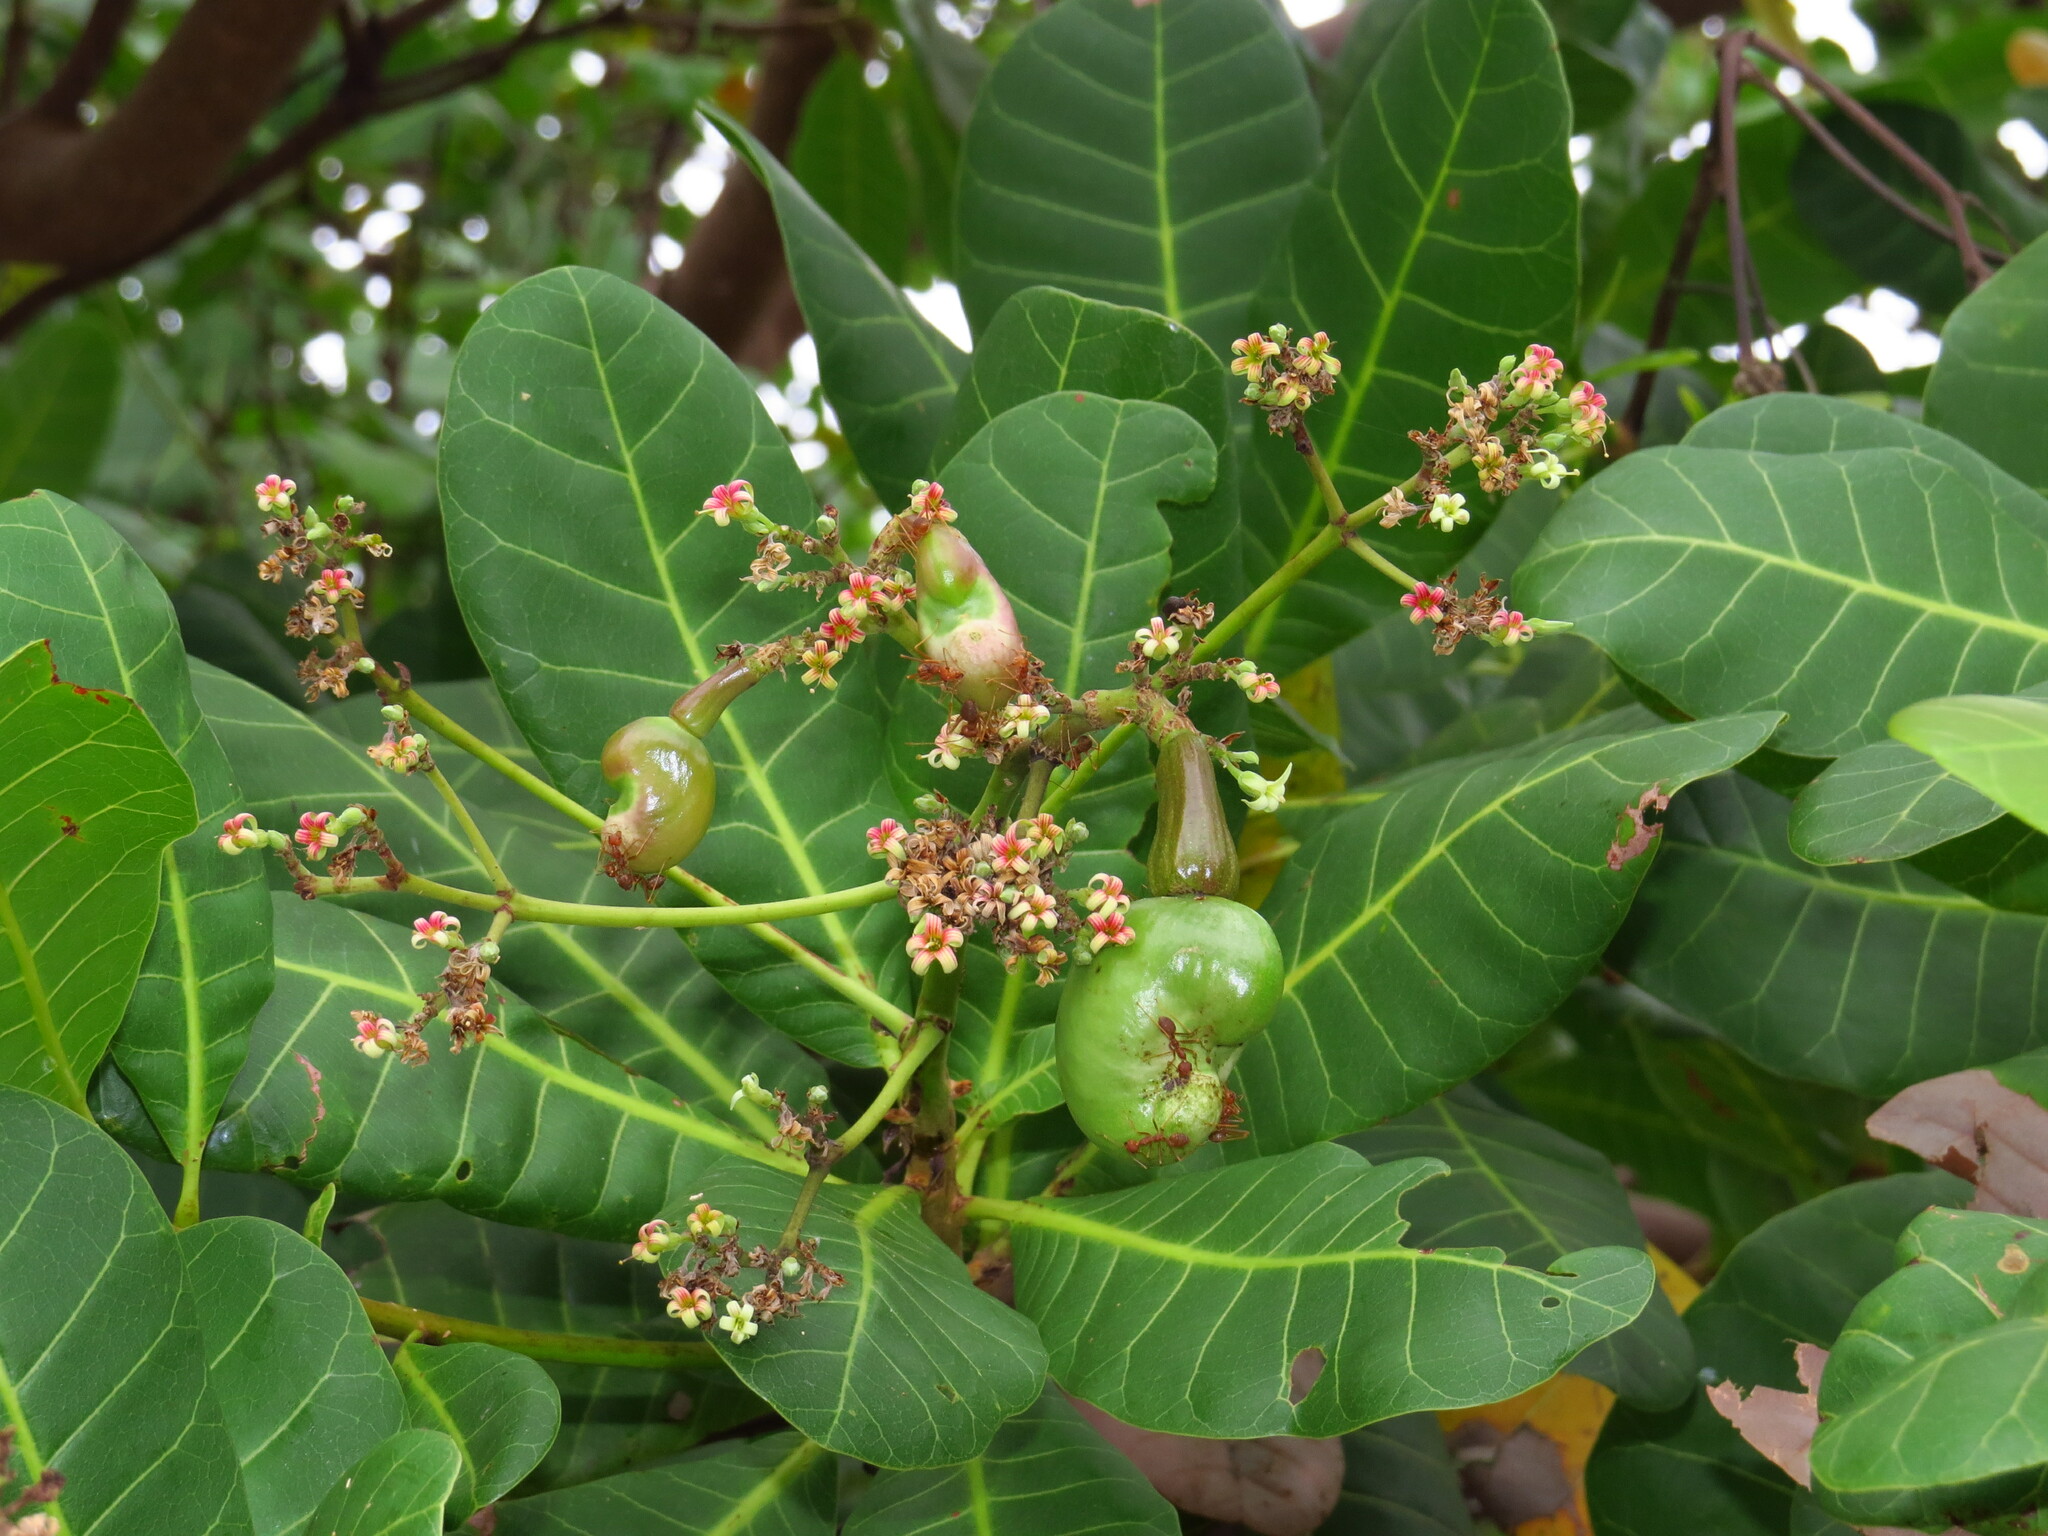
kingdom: Plantae
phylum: Tracheophyta
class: Magnoliopsida
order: Sapindales
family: Anacardiaceae
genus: Anacardium
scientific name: Anacardium occidentale
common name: Cashew
